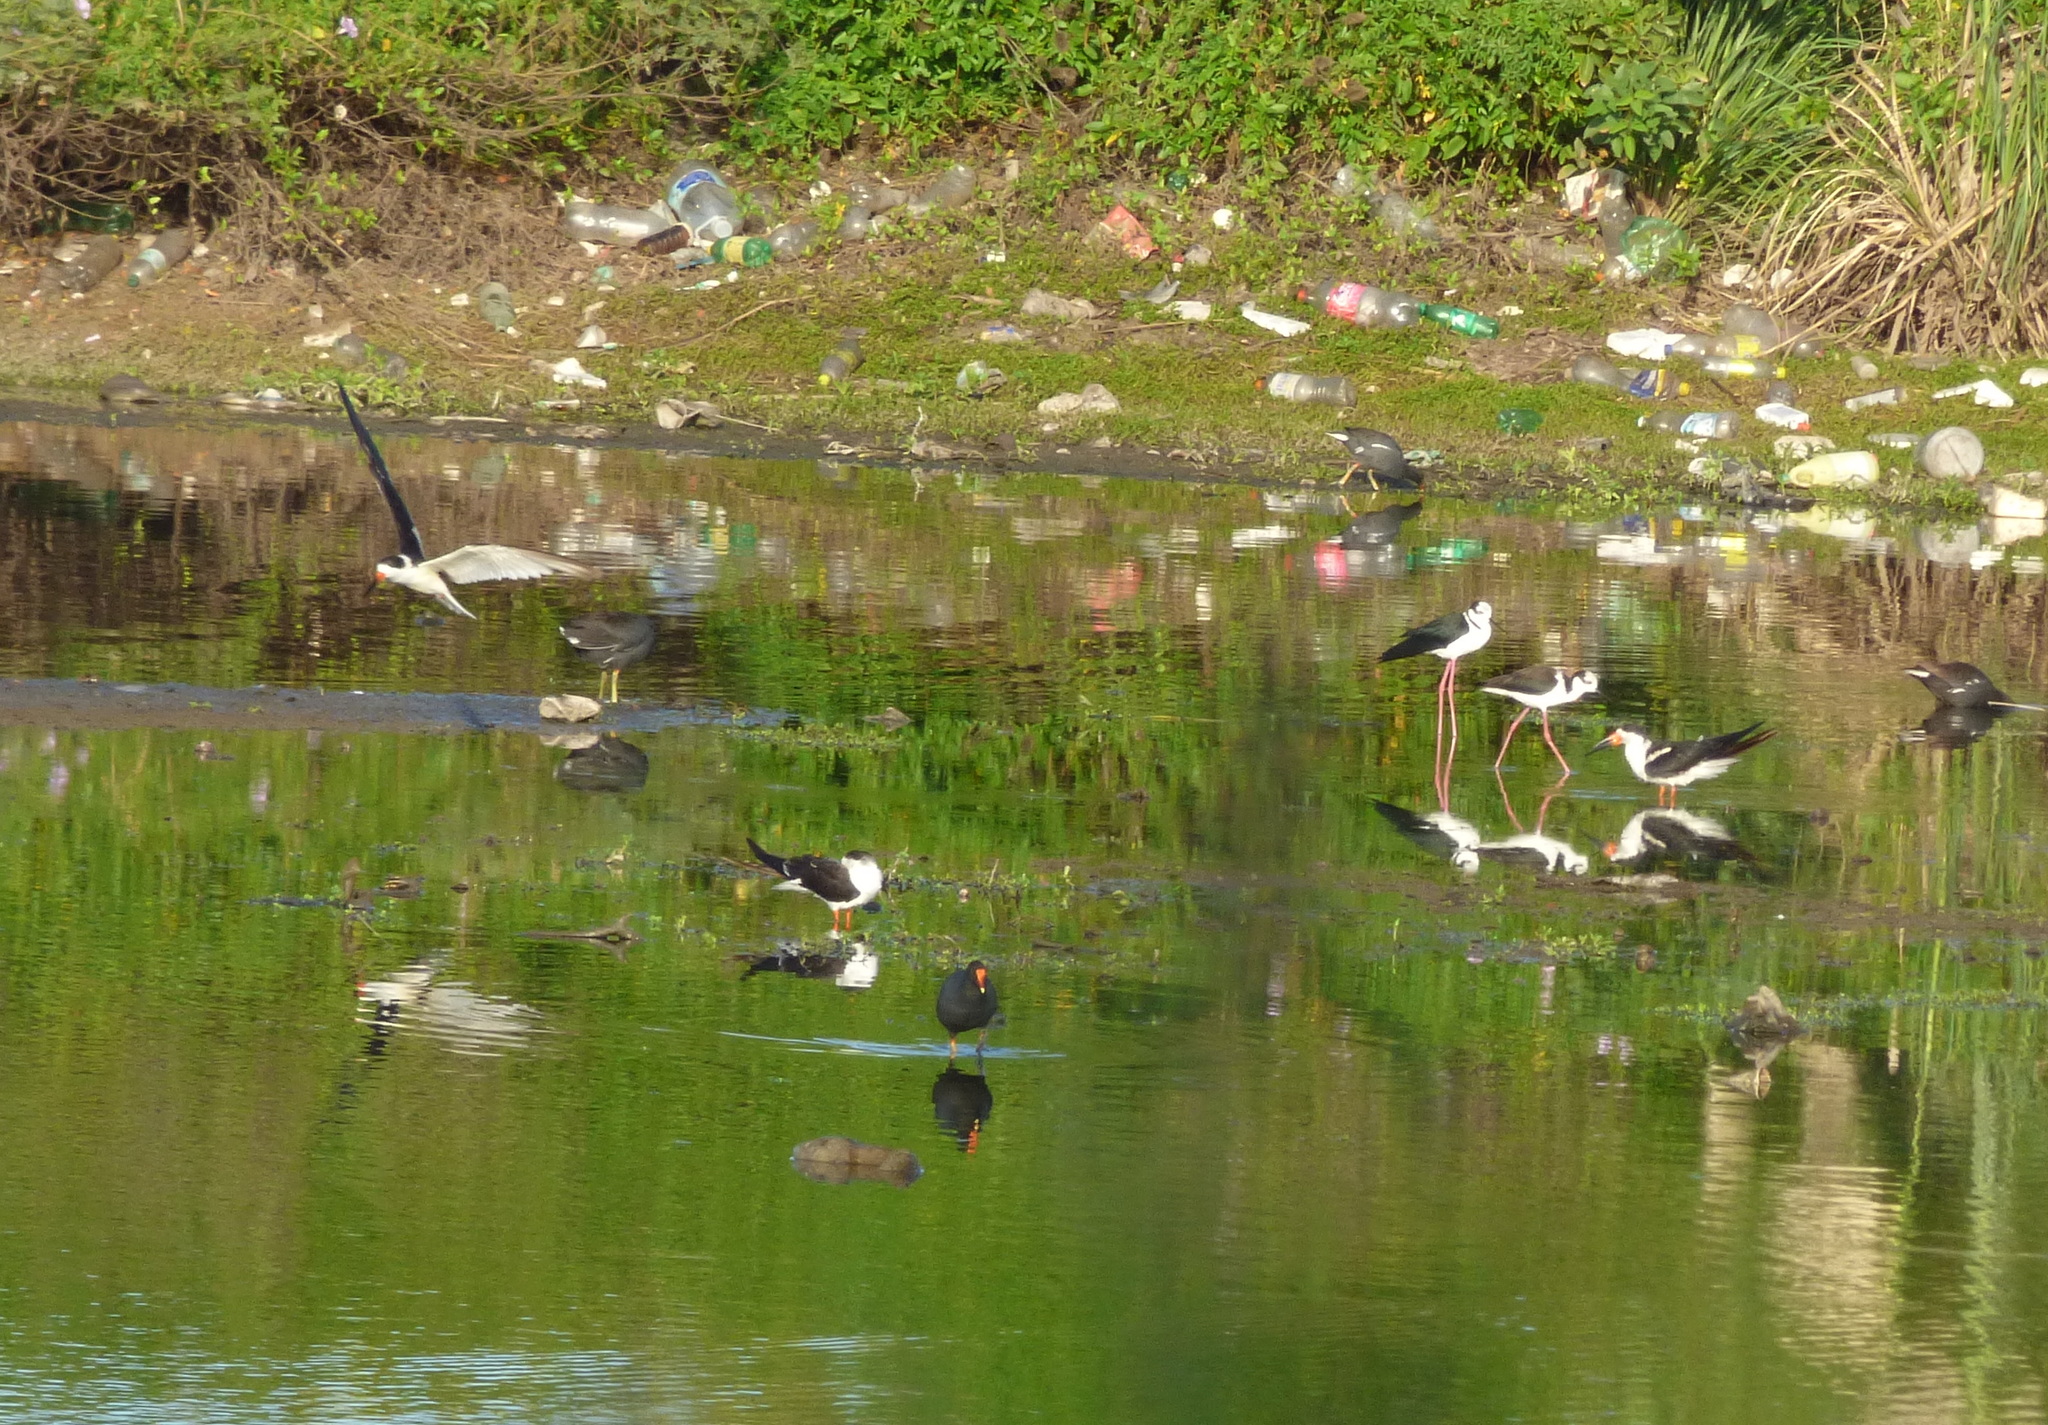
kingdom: Animalia
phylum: Chordata
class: Aves
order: Charadriiformes
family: Laridae
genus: Rynchops
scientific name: Rynchops niger
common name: Black skimmer
